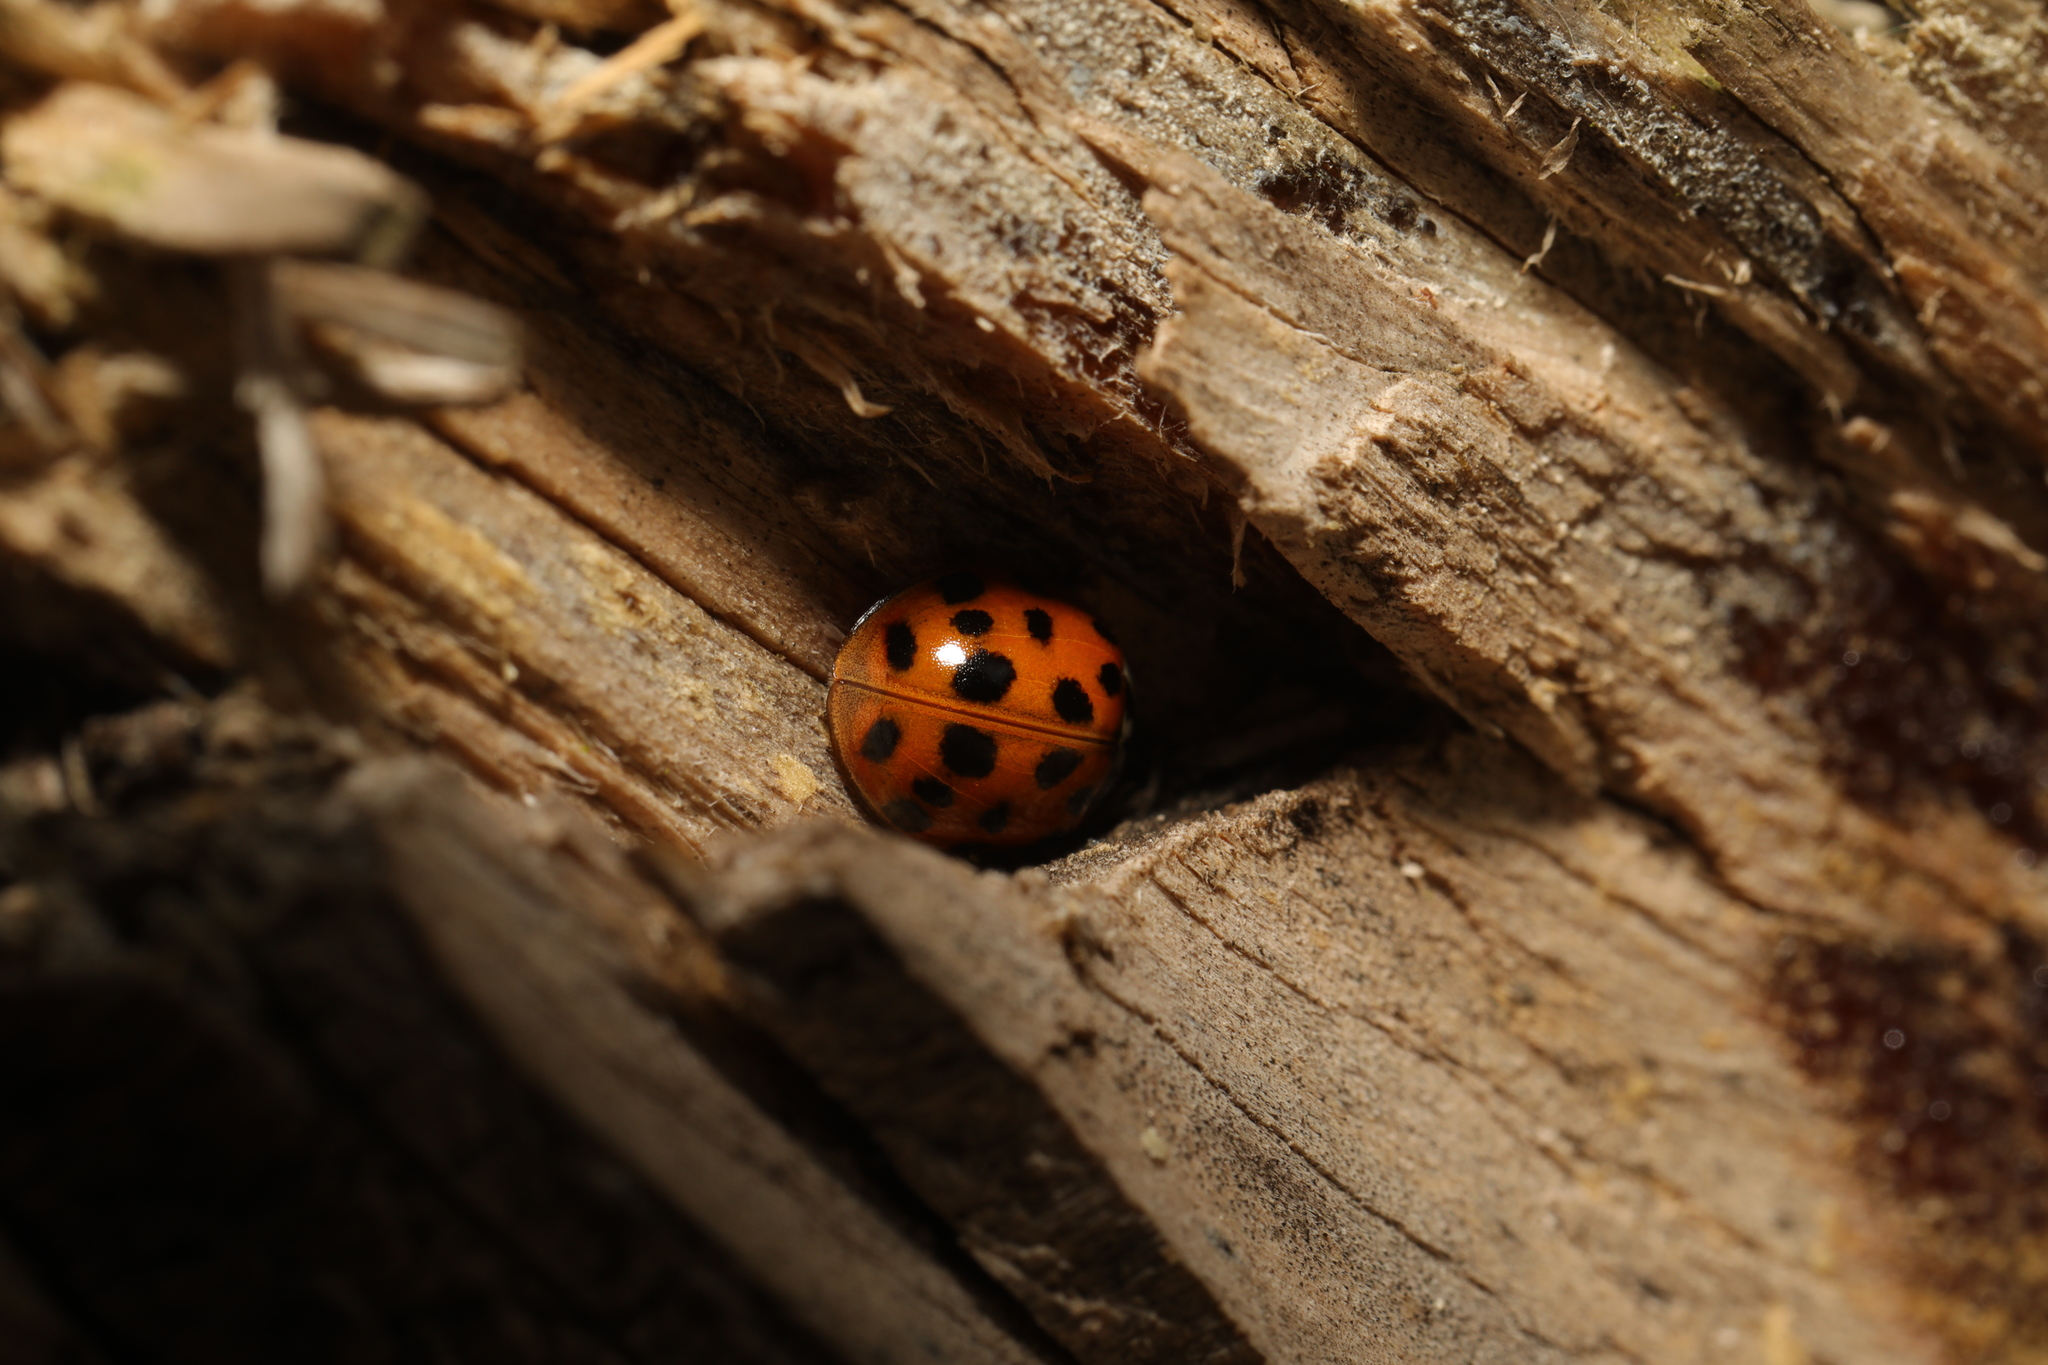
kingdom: Animalia
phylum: Arthropoda
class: Insecta
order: Coleoptera
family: Coccinellidae
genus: Harmonia
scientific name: Harmonia axyridis
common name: Harlequin ladybird
